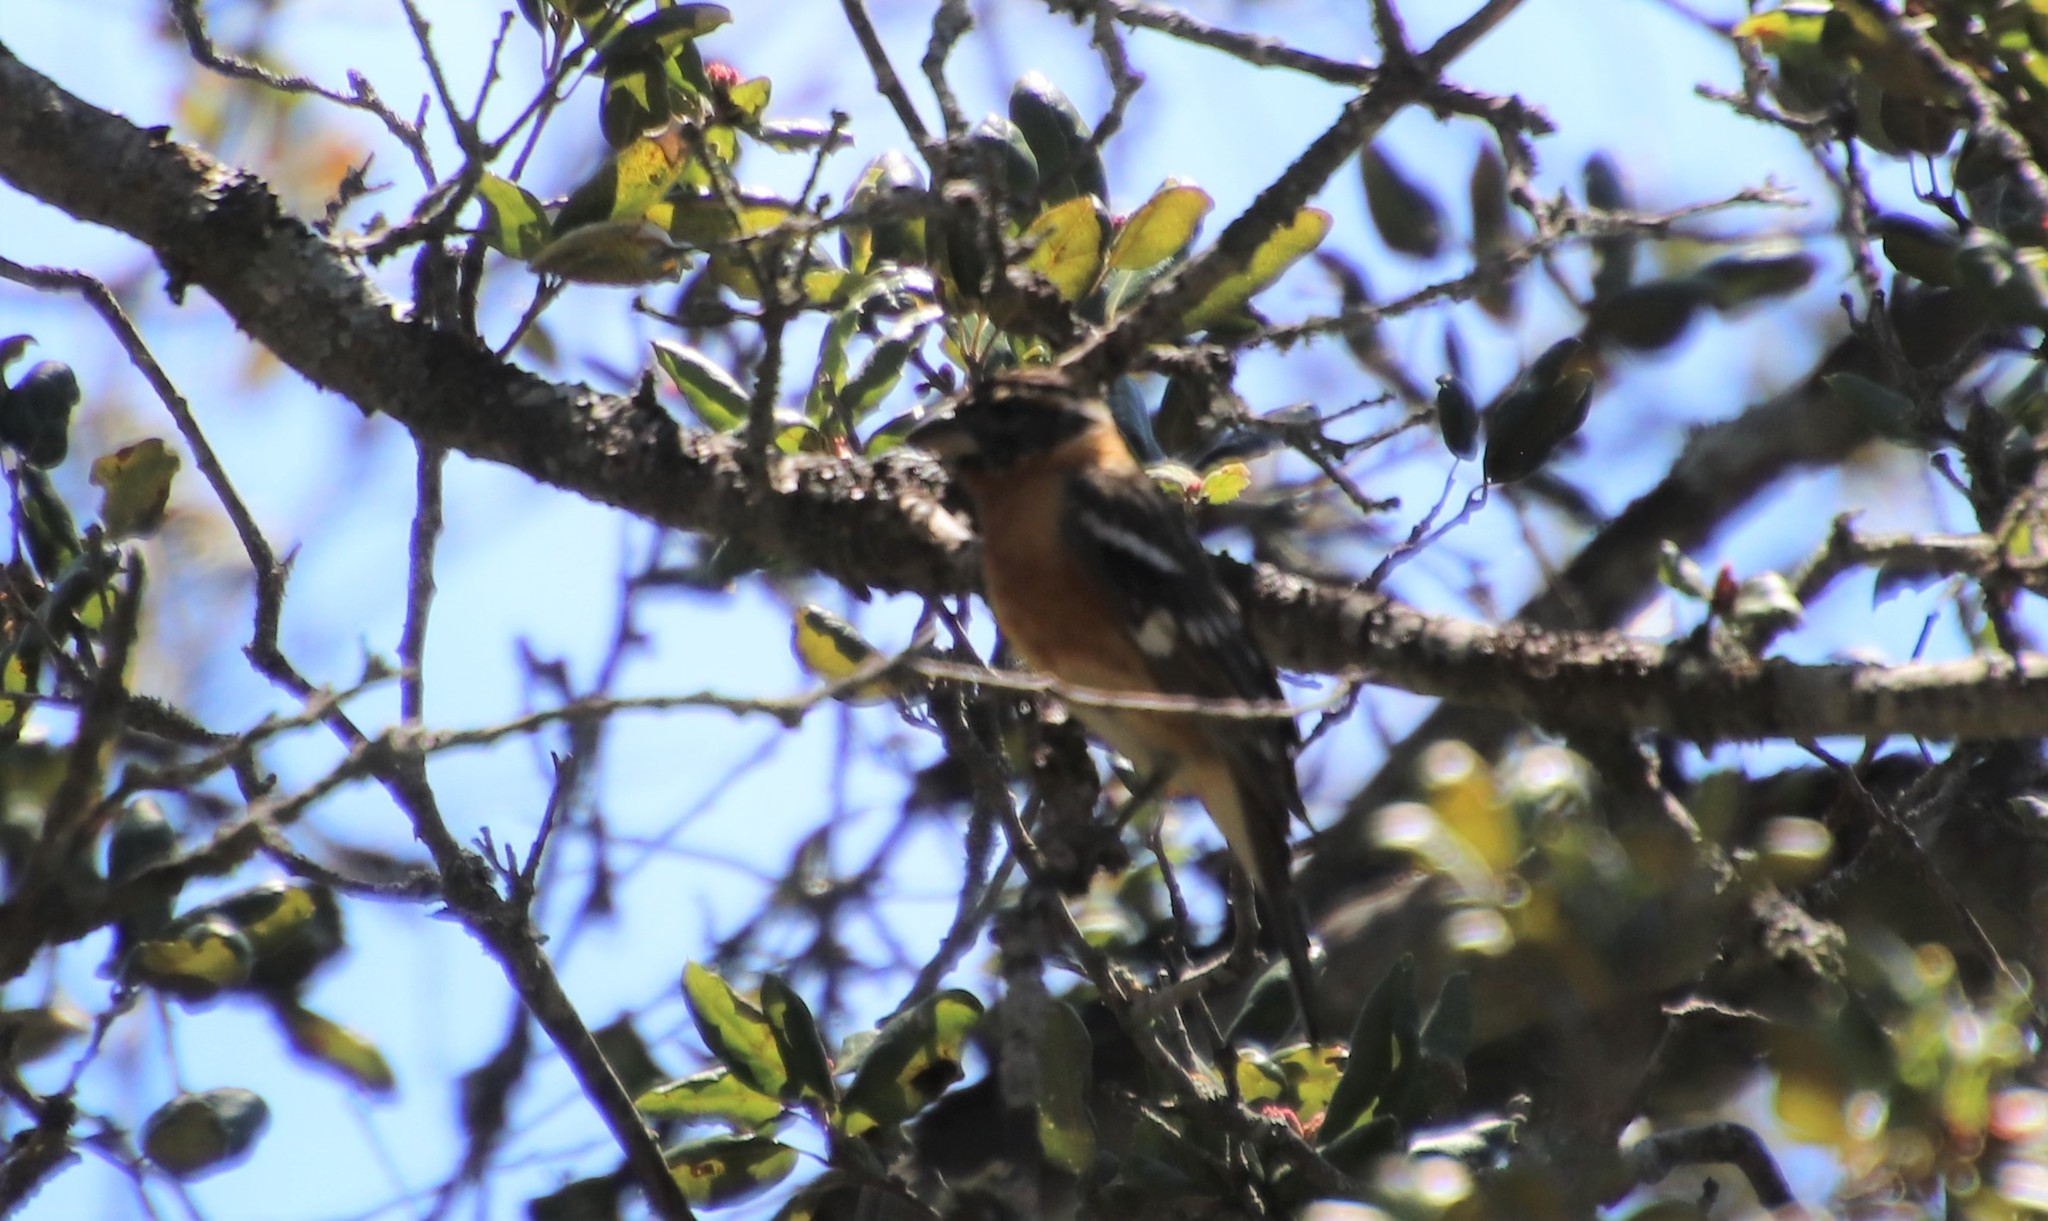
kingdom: Animalia
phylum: Chordata
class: Aves
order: Passeriformes
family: Cardinalidae
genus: Pheucticus
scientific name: Pheucticus melanocephalus
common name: Black-headed grosbeak
